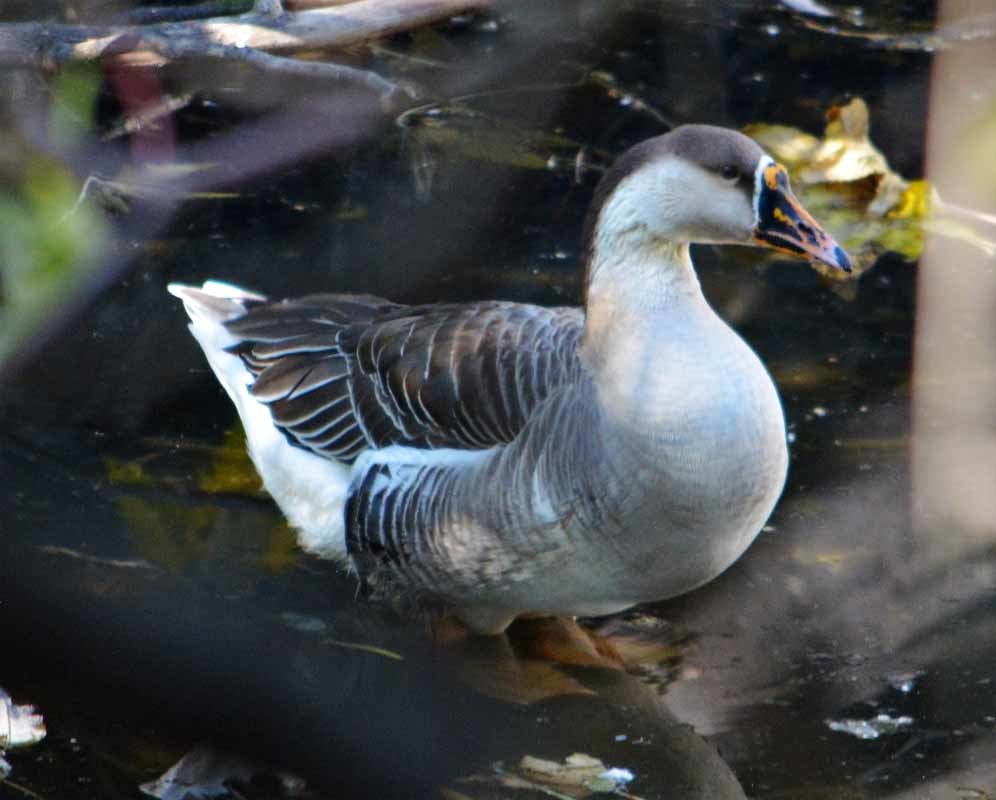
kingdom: Animalia
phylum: Chordata
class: Aves
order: Anseriformes
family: Anatidae
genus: Anser
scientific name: Anser
